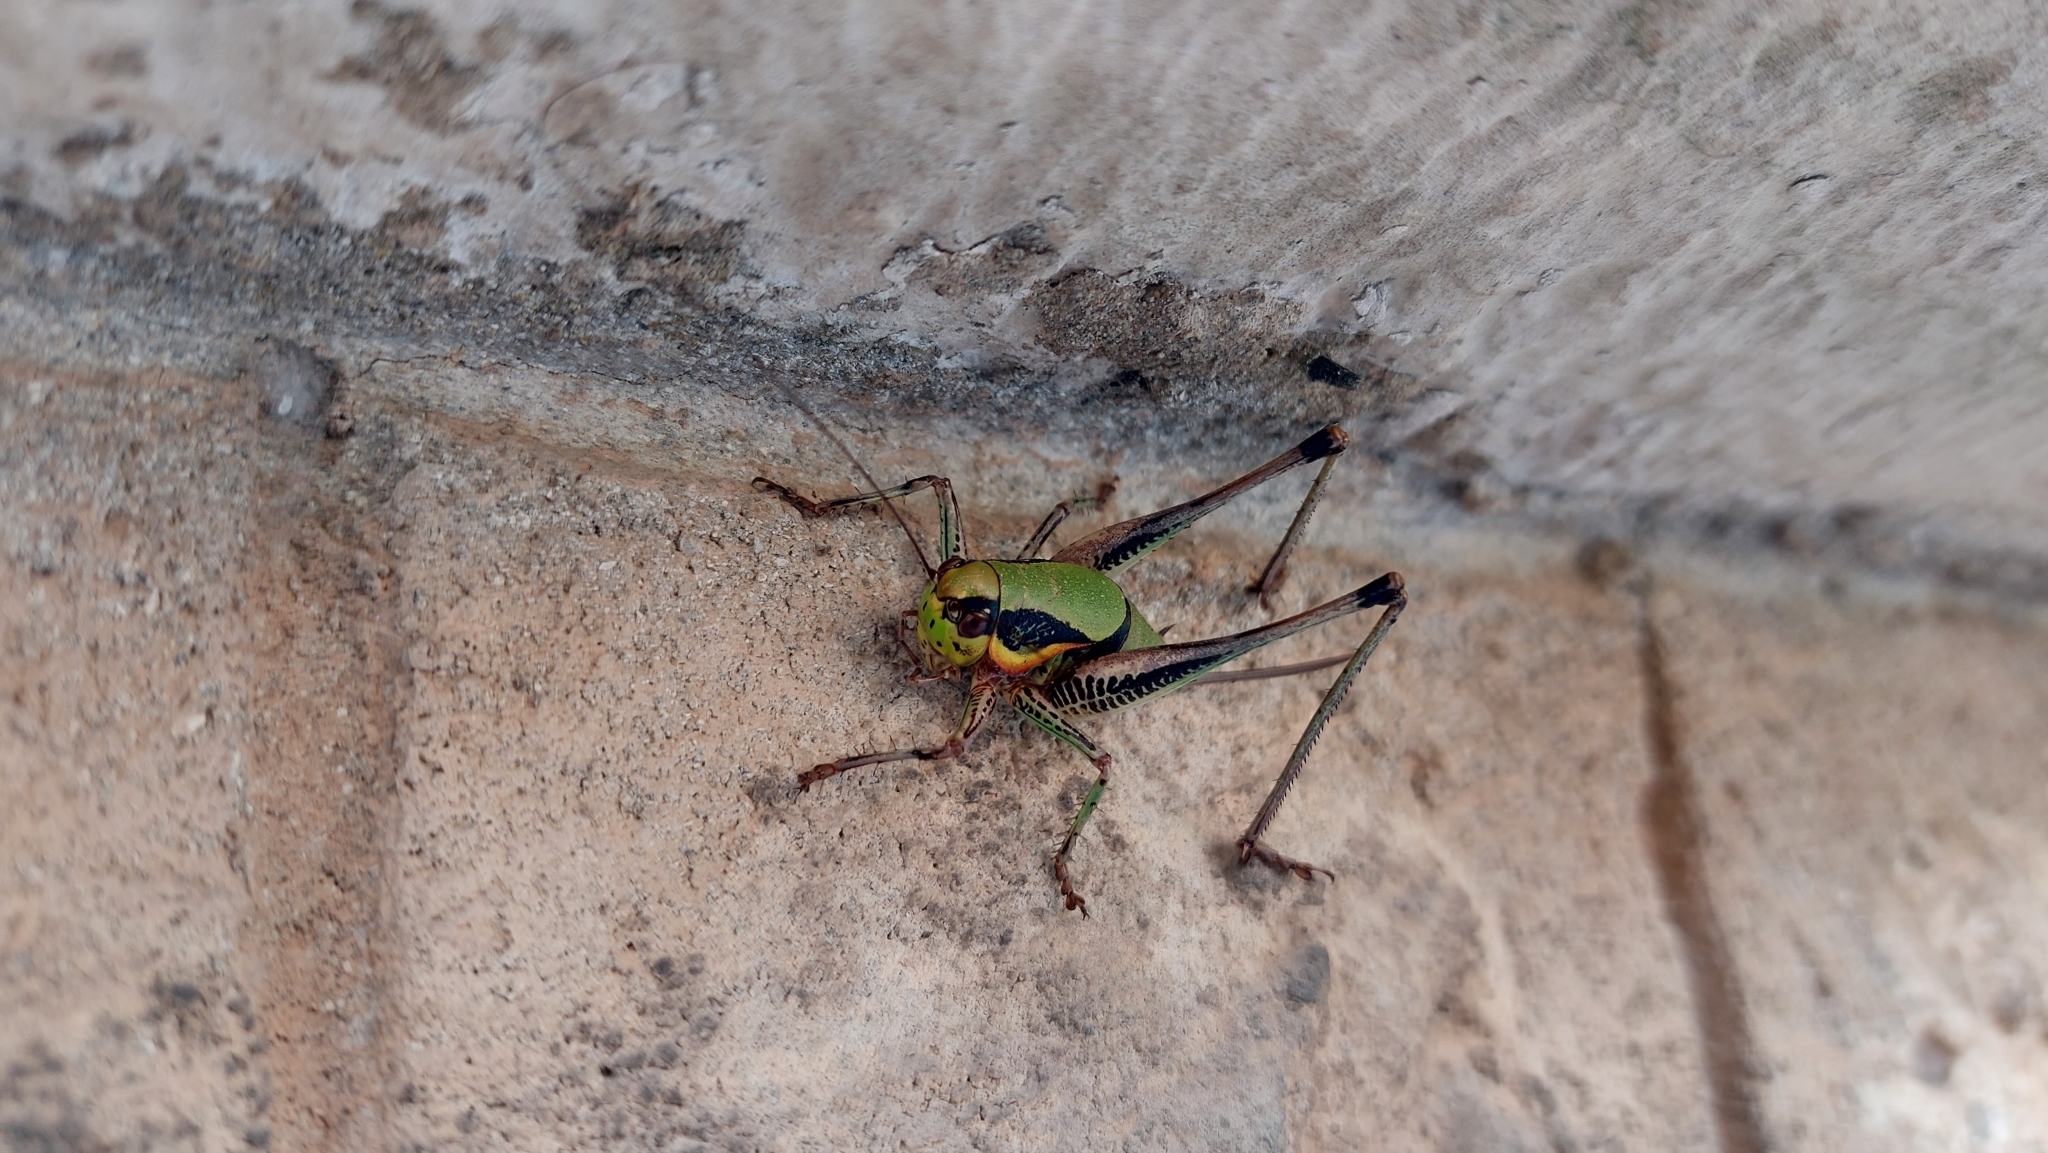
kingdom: Animalia
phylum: Arthropoda
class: Insecta
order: Orthoptera
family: Tettigoniidae
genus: Eupholidoptera
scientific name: Eupholidoptera schmidti
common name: Schmidt's marbled bush-cricket
